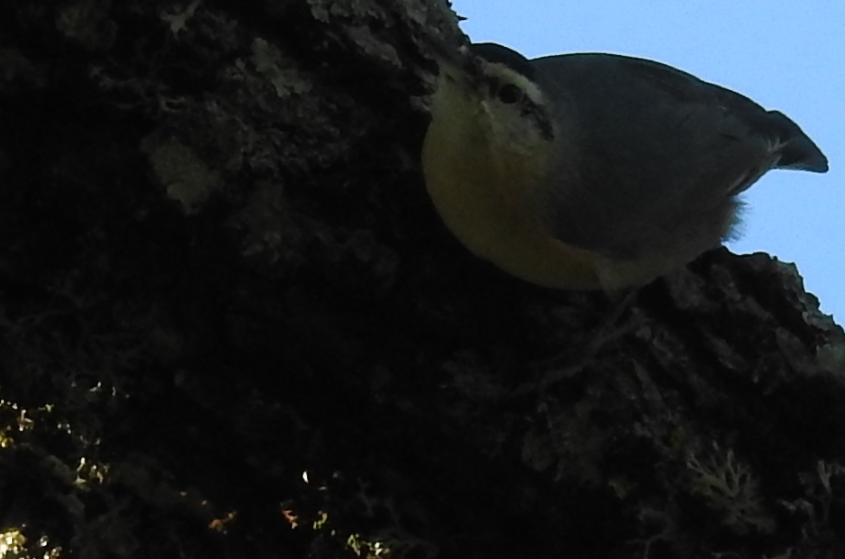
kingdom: Animalia
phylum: Chordata
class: Aves
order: Passeriformes
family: Sittidae
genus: Sitta
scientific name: Sitta ledanti
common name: Algerian nuthatch
